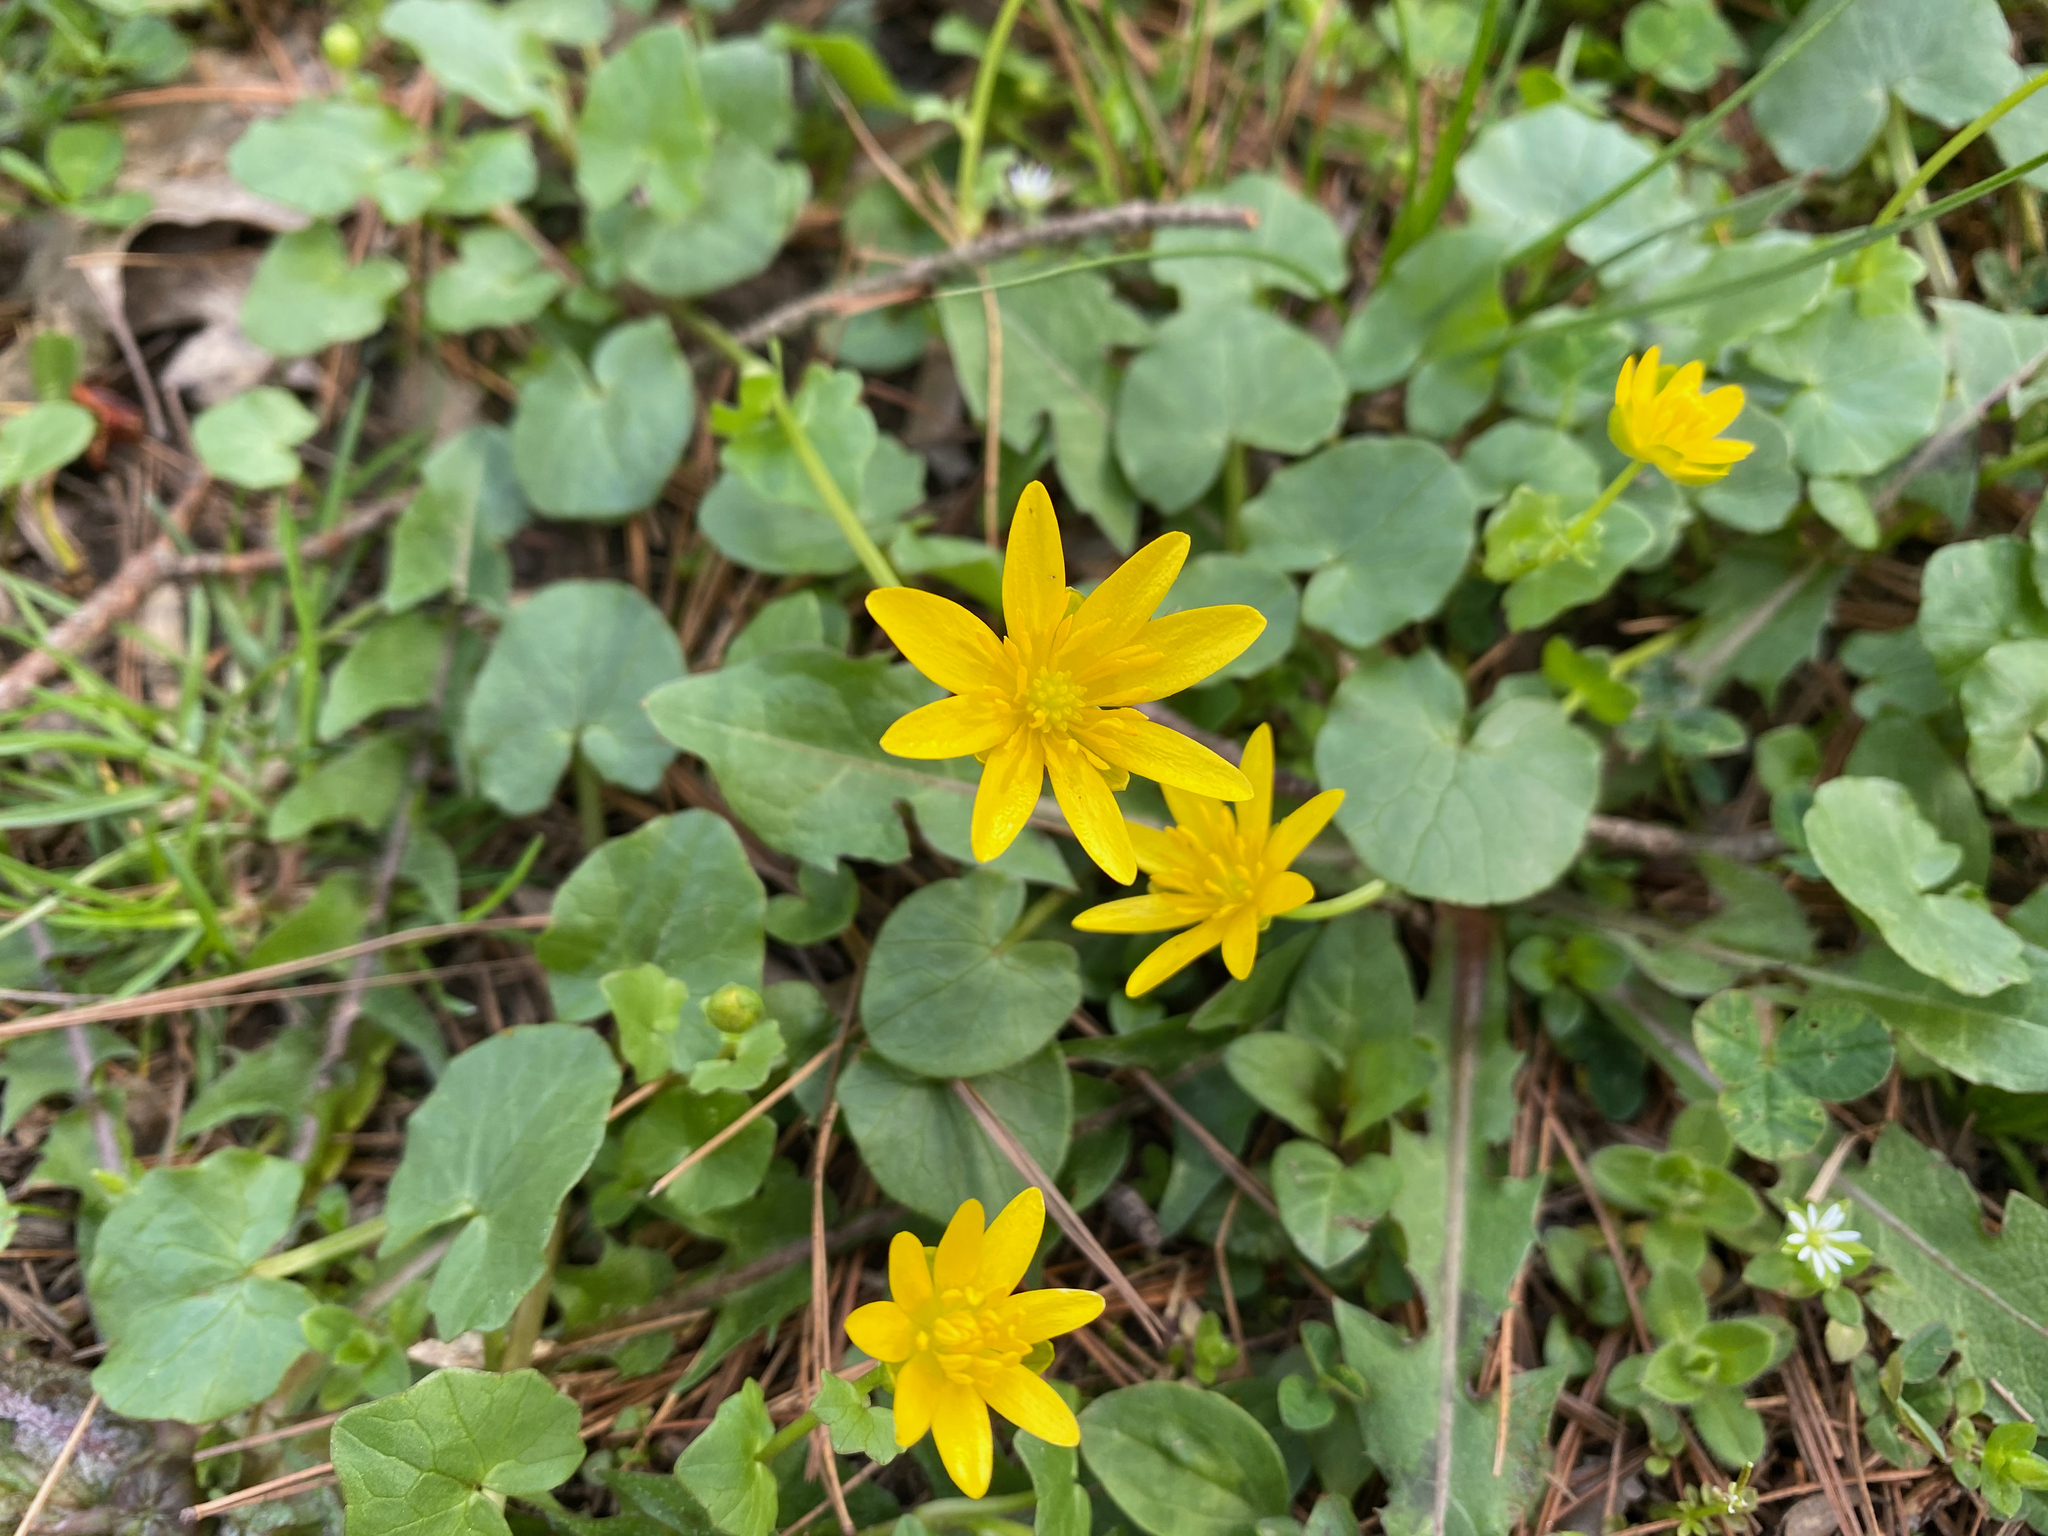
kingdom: Plantae
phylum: Tracheophyta
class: Magnoliopsida
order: Ranunculales
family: Ranunculaceae
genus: Ficaria
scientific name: Ficaria verna
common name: Lesser celandine
